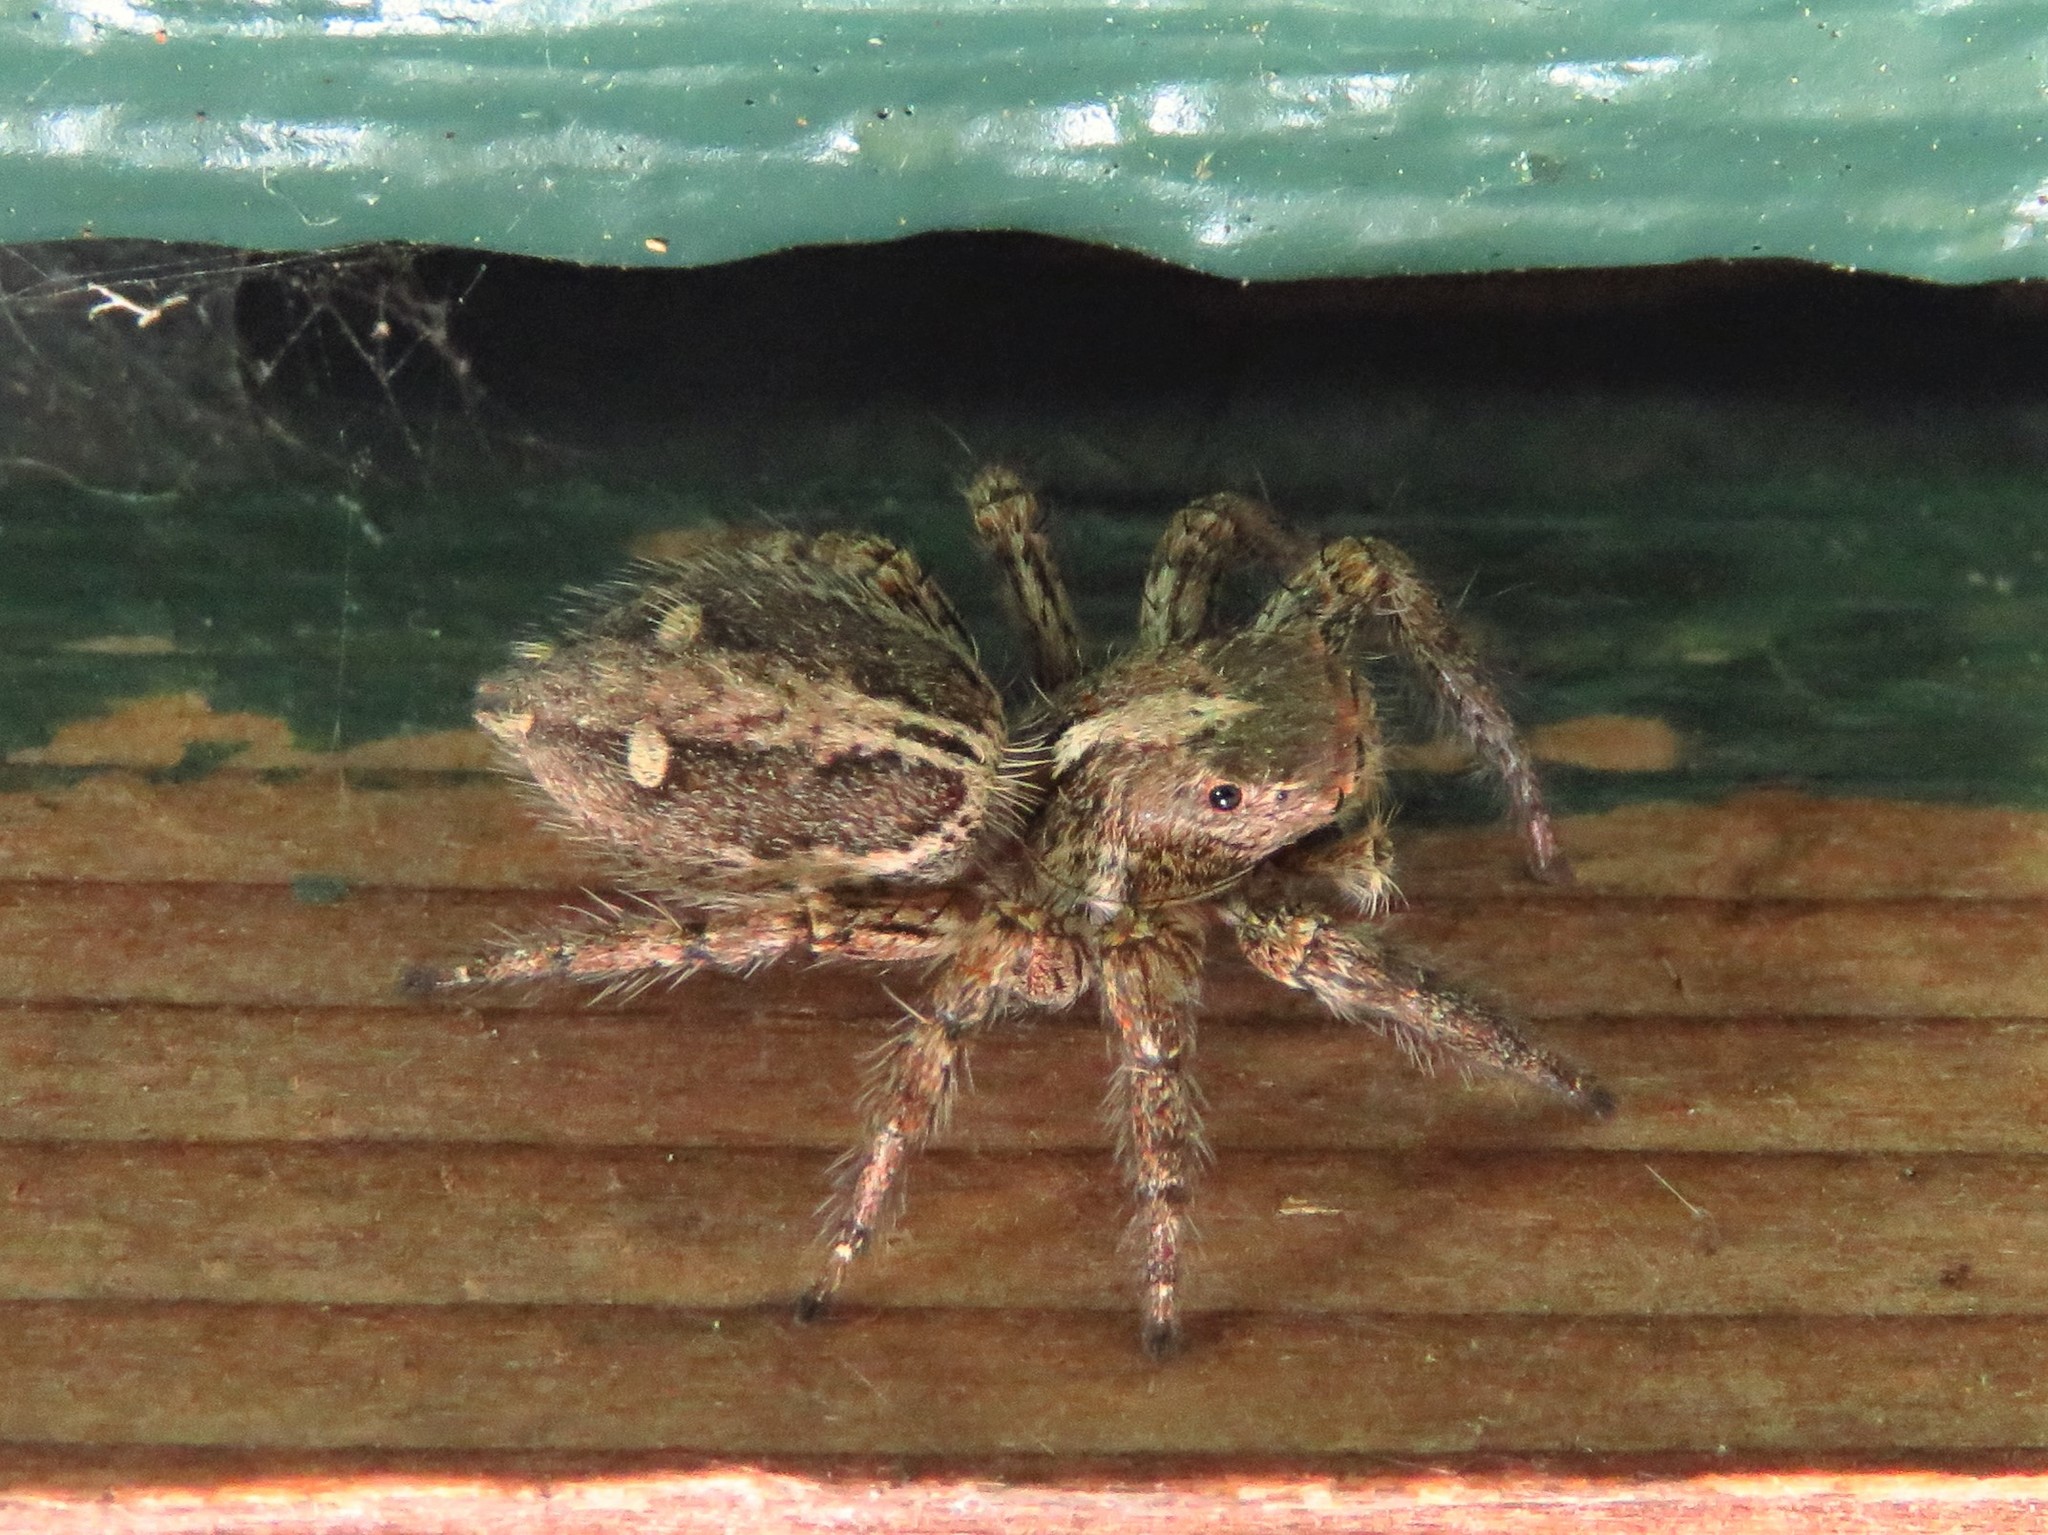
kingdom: Animalia
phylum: Arthropoda
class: Arachnida
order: Araneae
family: Salticidae
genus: Plexippus
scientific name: Plexippus paykulli
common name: Pantropical jumper
